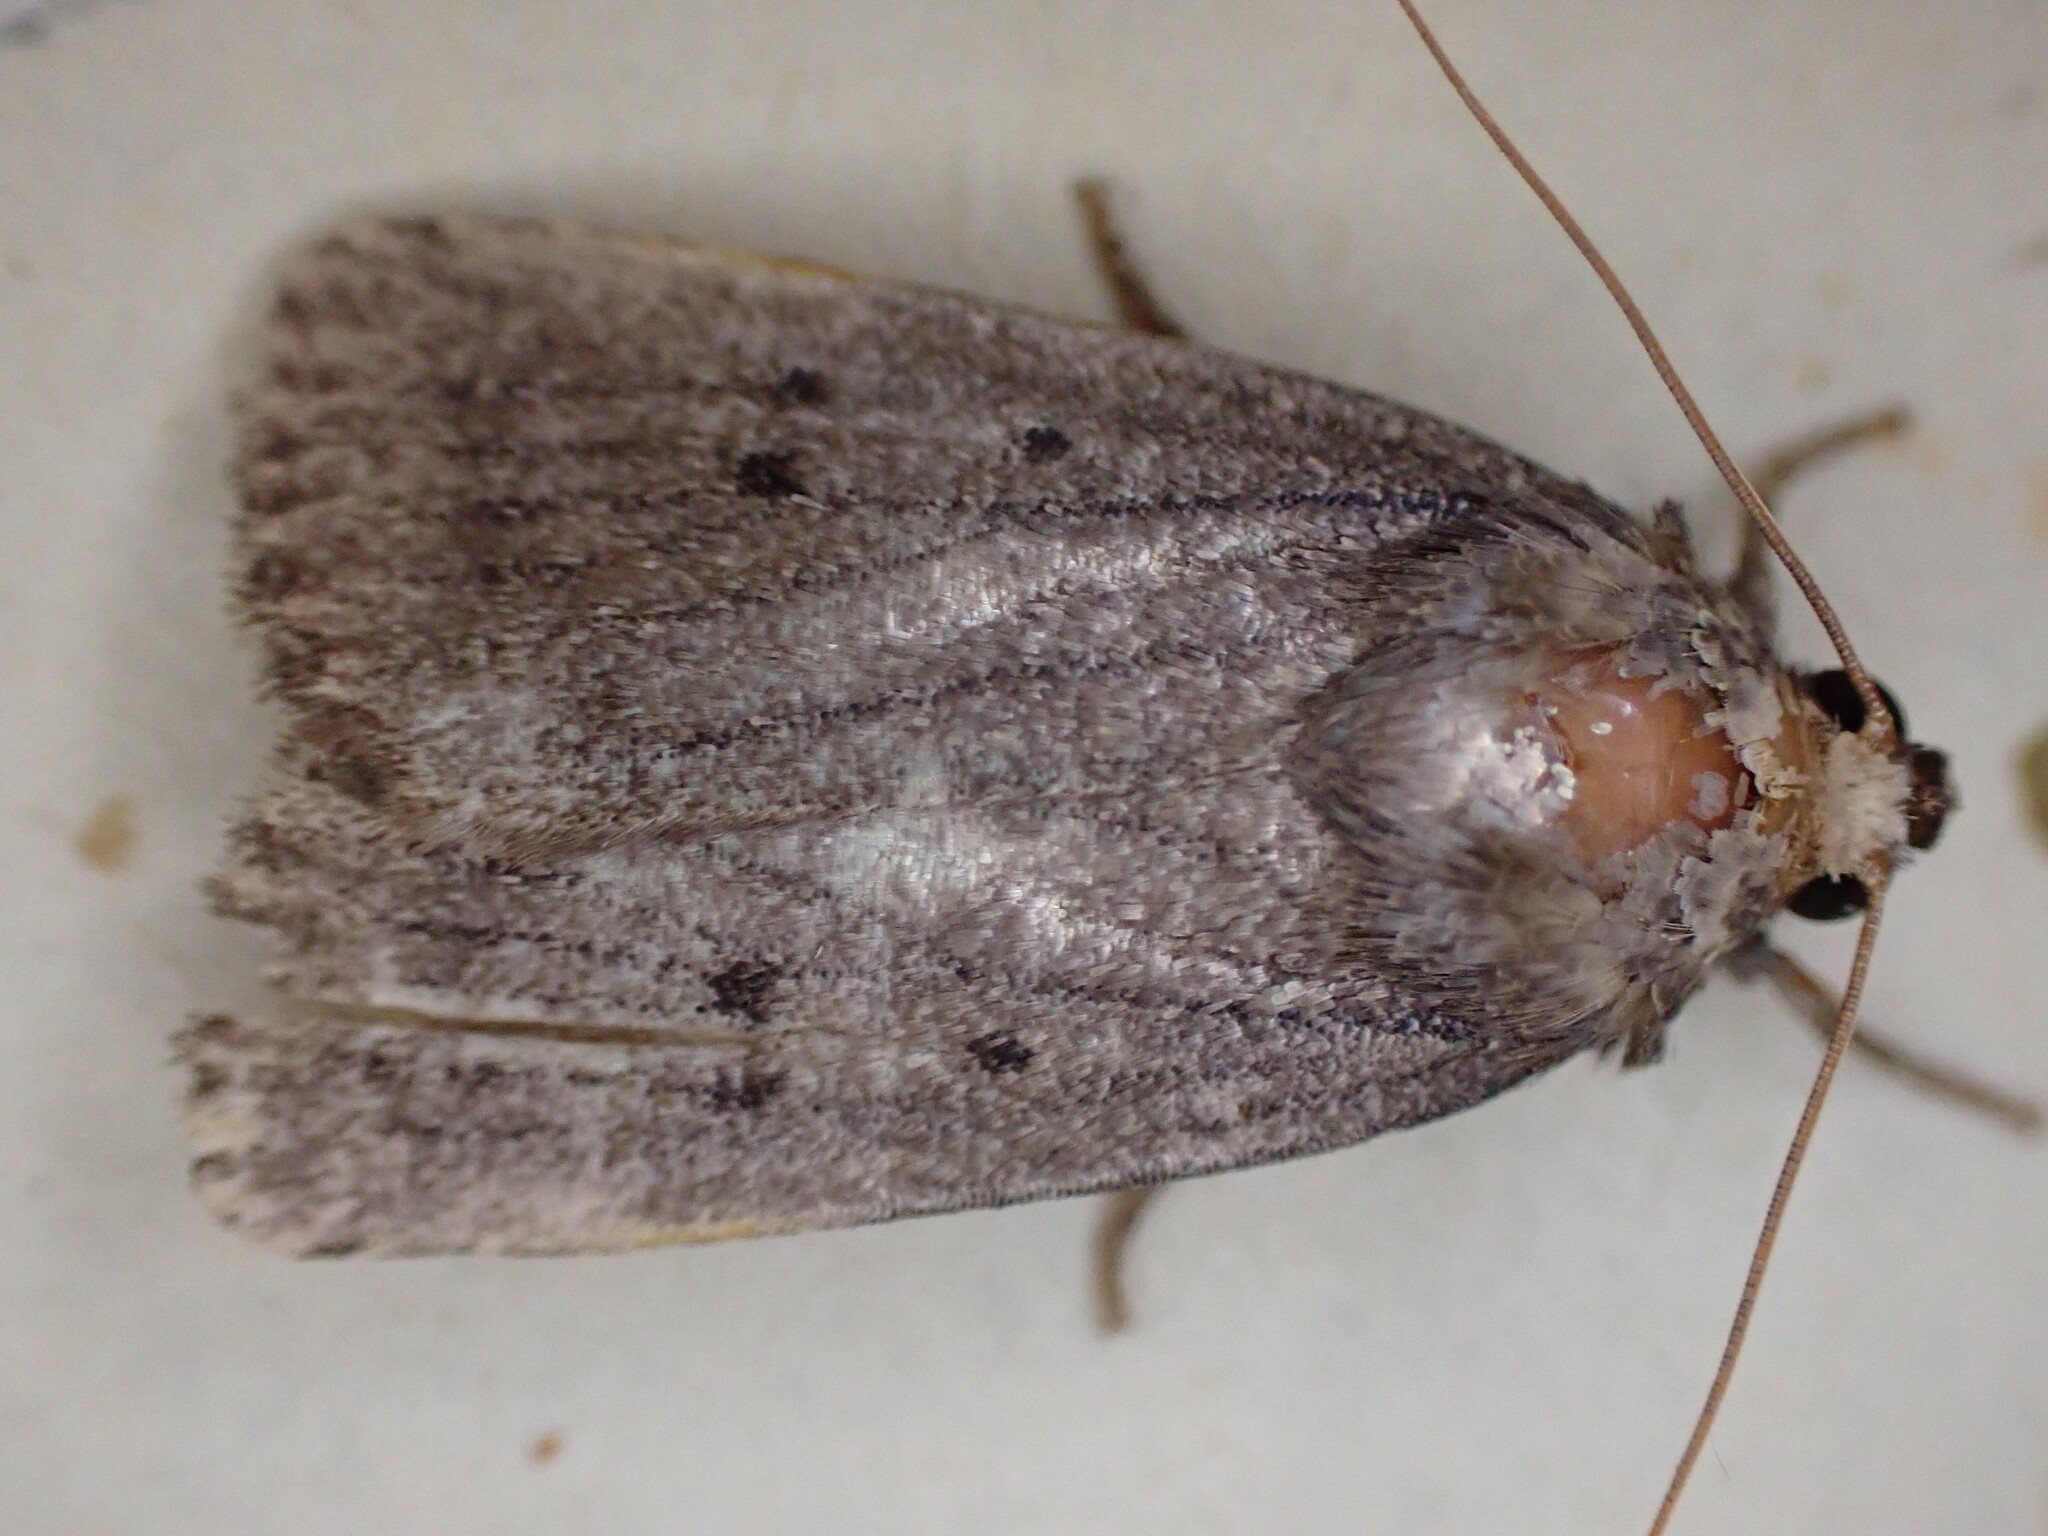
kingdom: Animalia
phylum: Arthropoda
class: Insecta
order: Lepidoptera
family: Noctuidae
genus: Amphipyra
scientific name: Amphipyra tragopoginis
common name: Mouse moth
